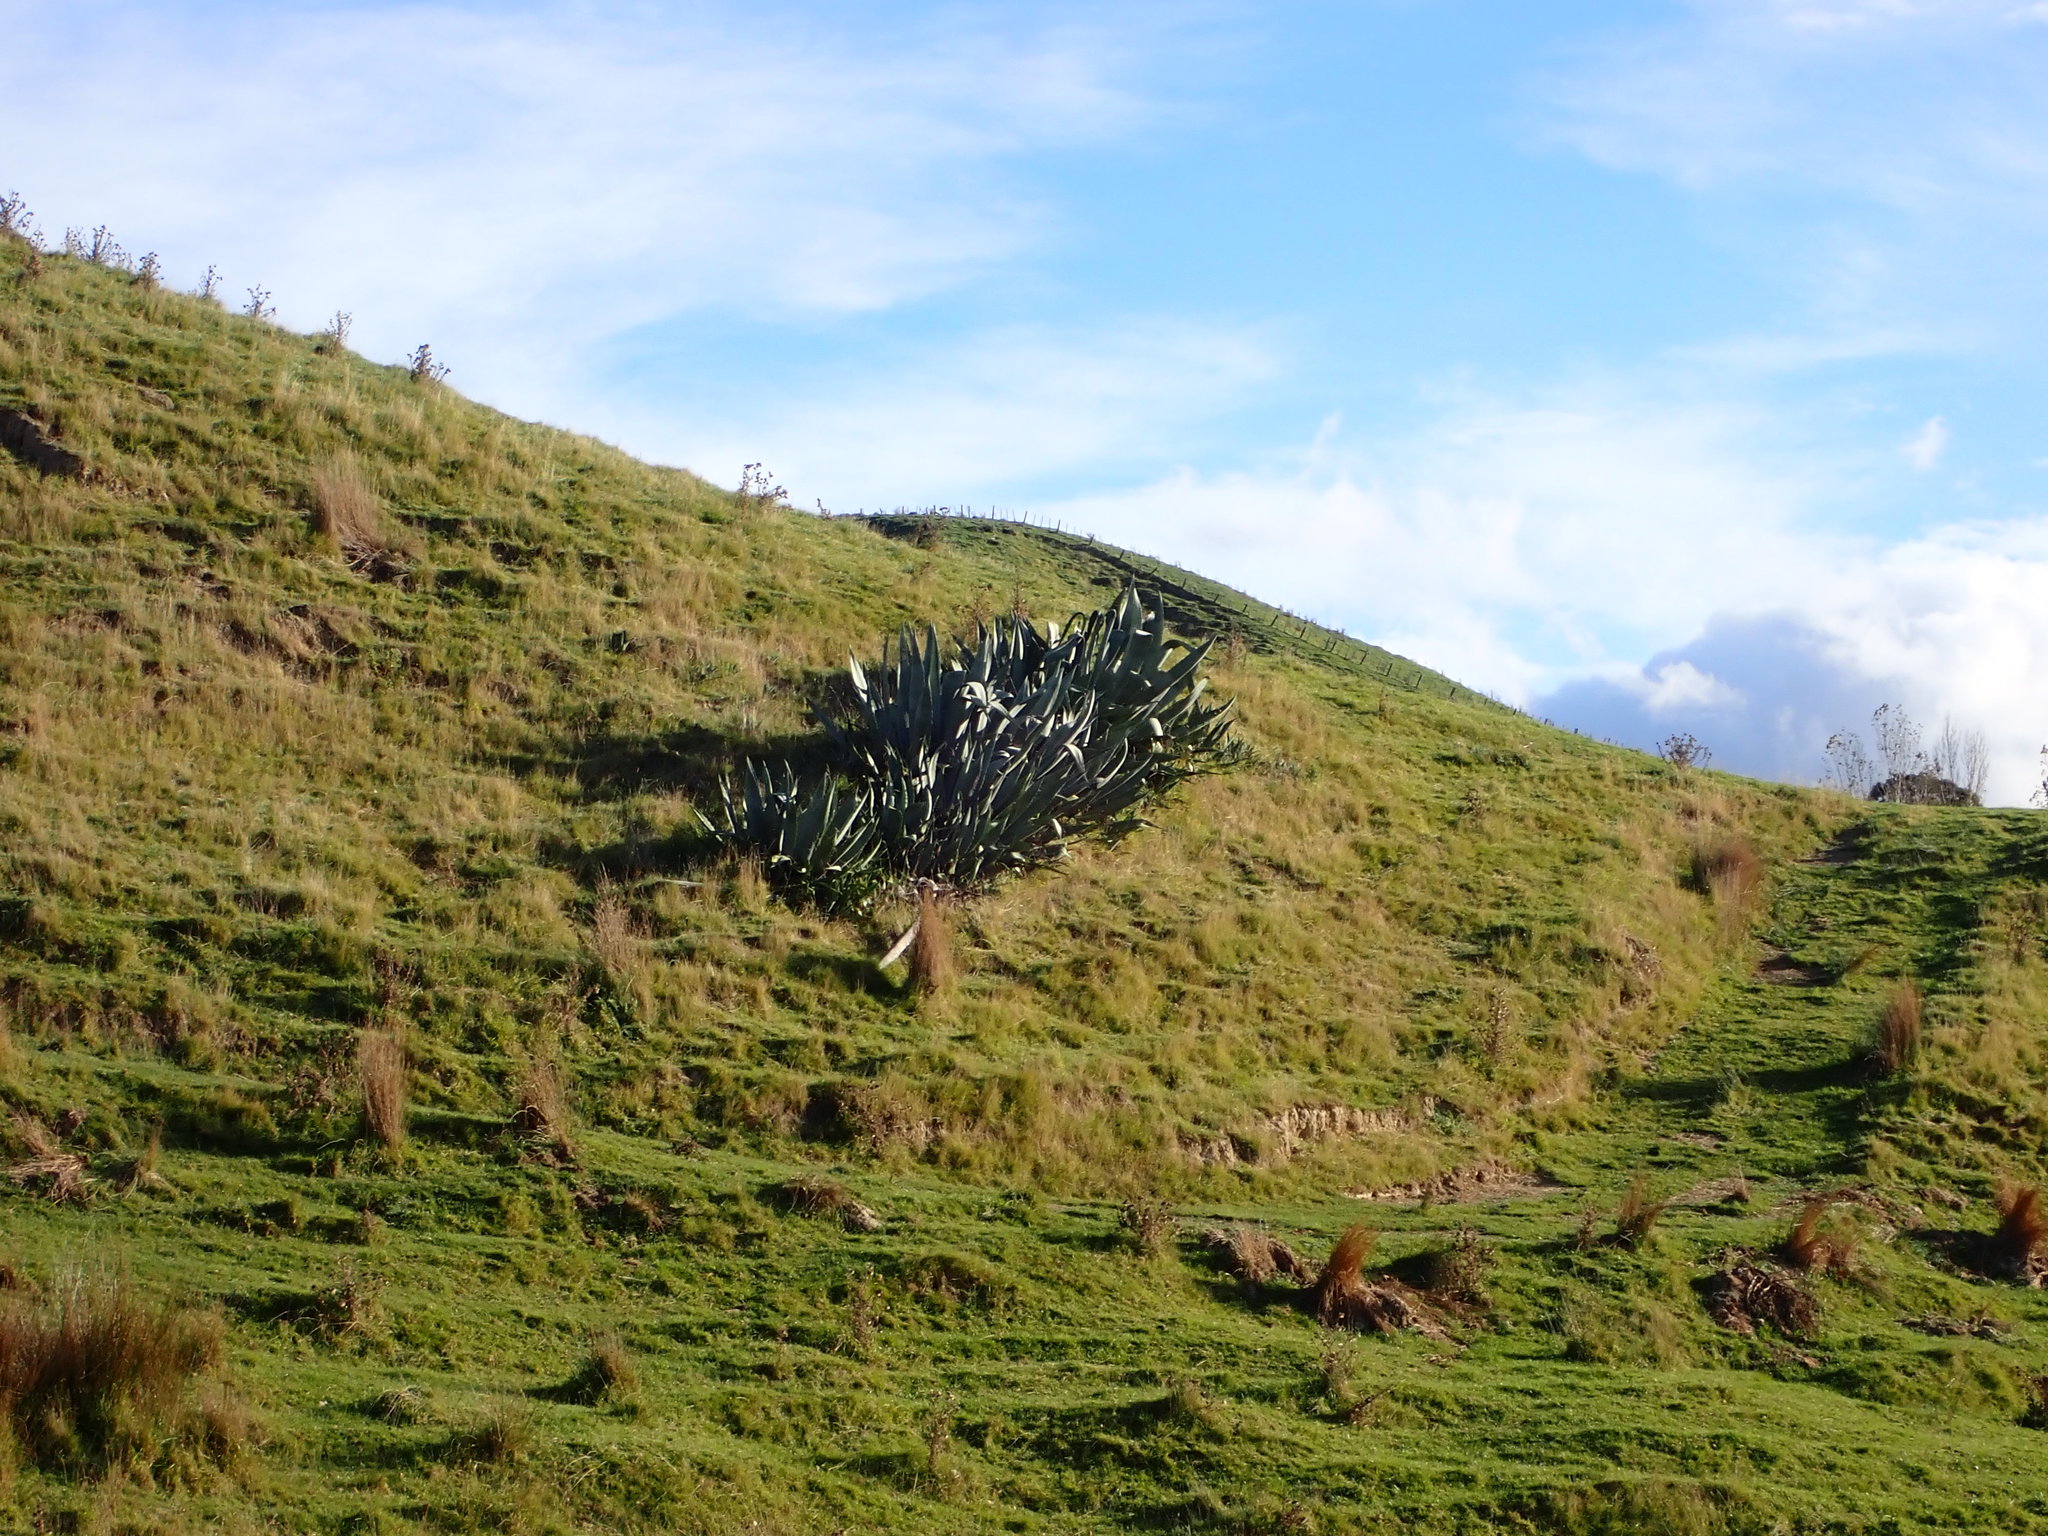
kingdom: Plantae
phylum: Tracheophyta
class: Liliopsida
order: Asparagales
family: Asparagaceae
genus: Agave
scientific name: Agave americana
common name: Centuryplant
